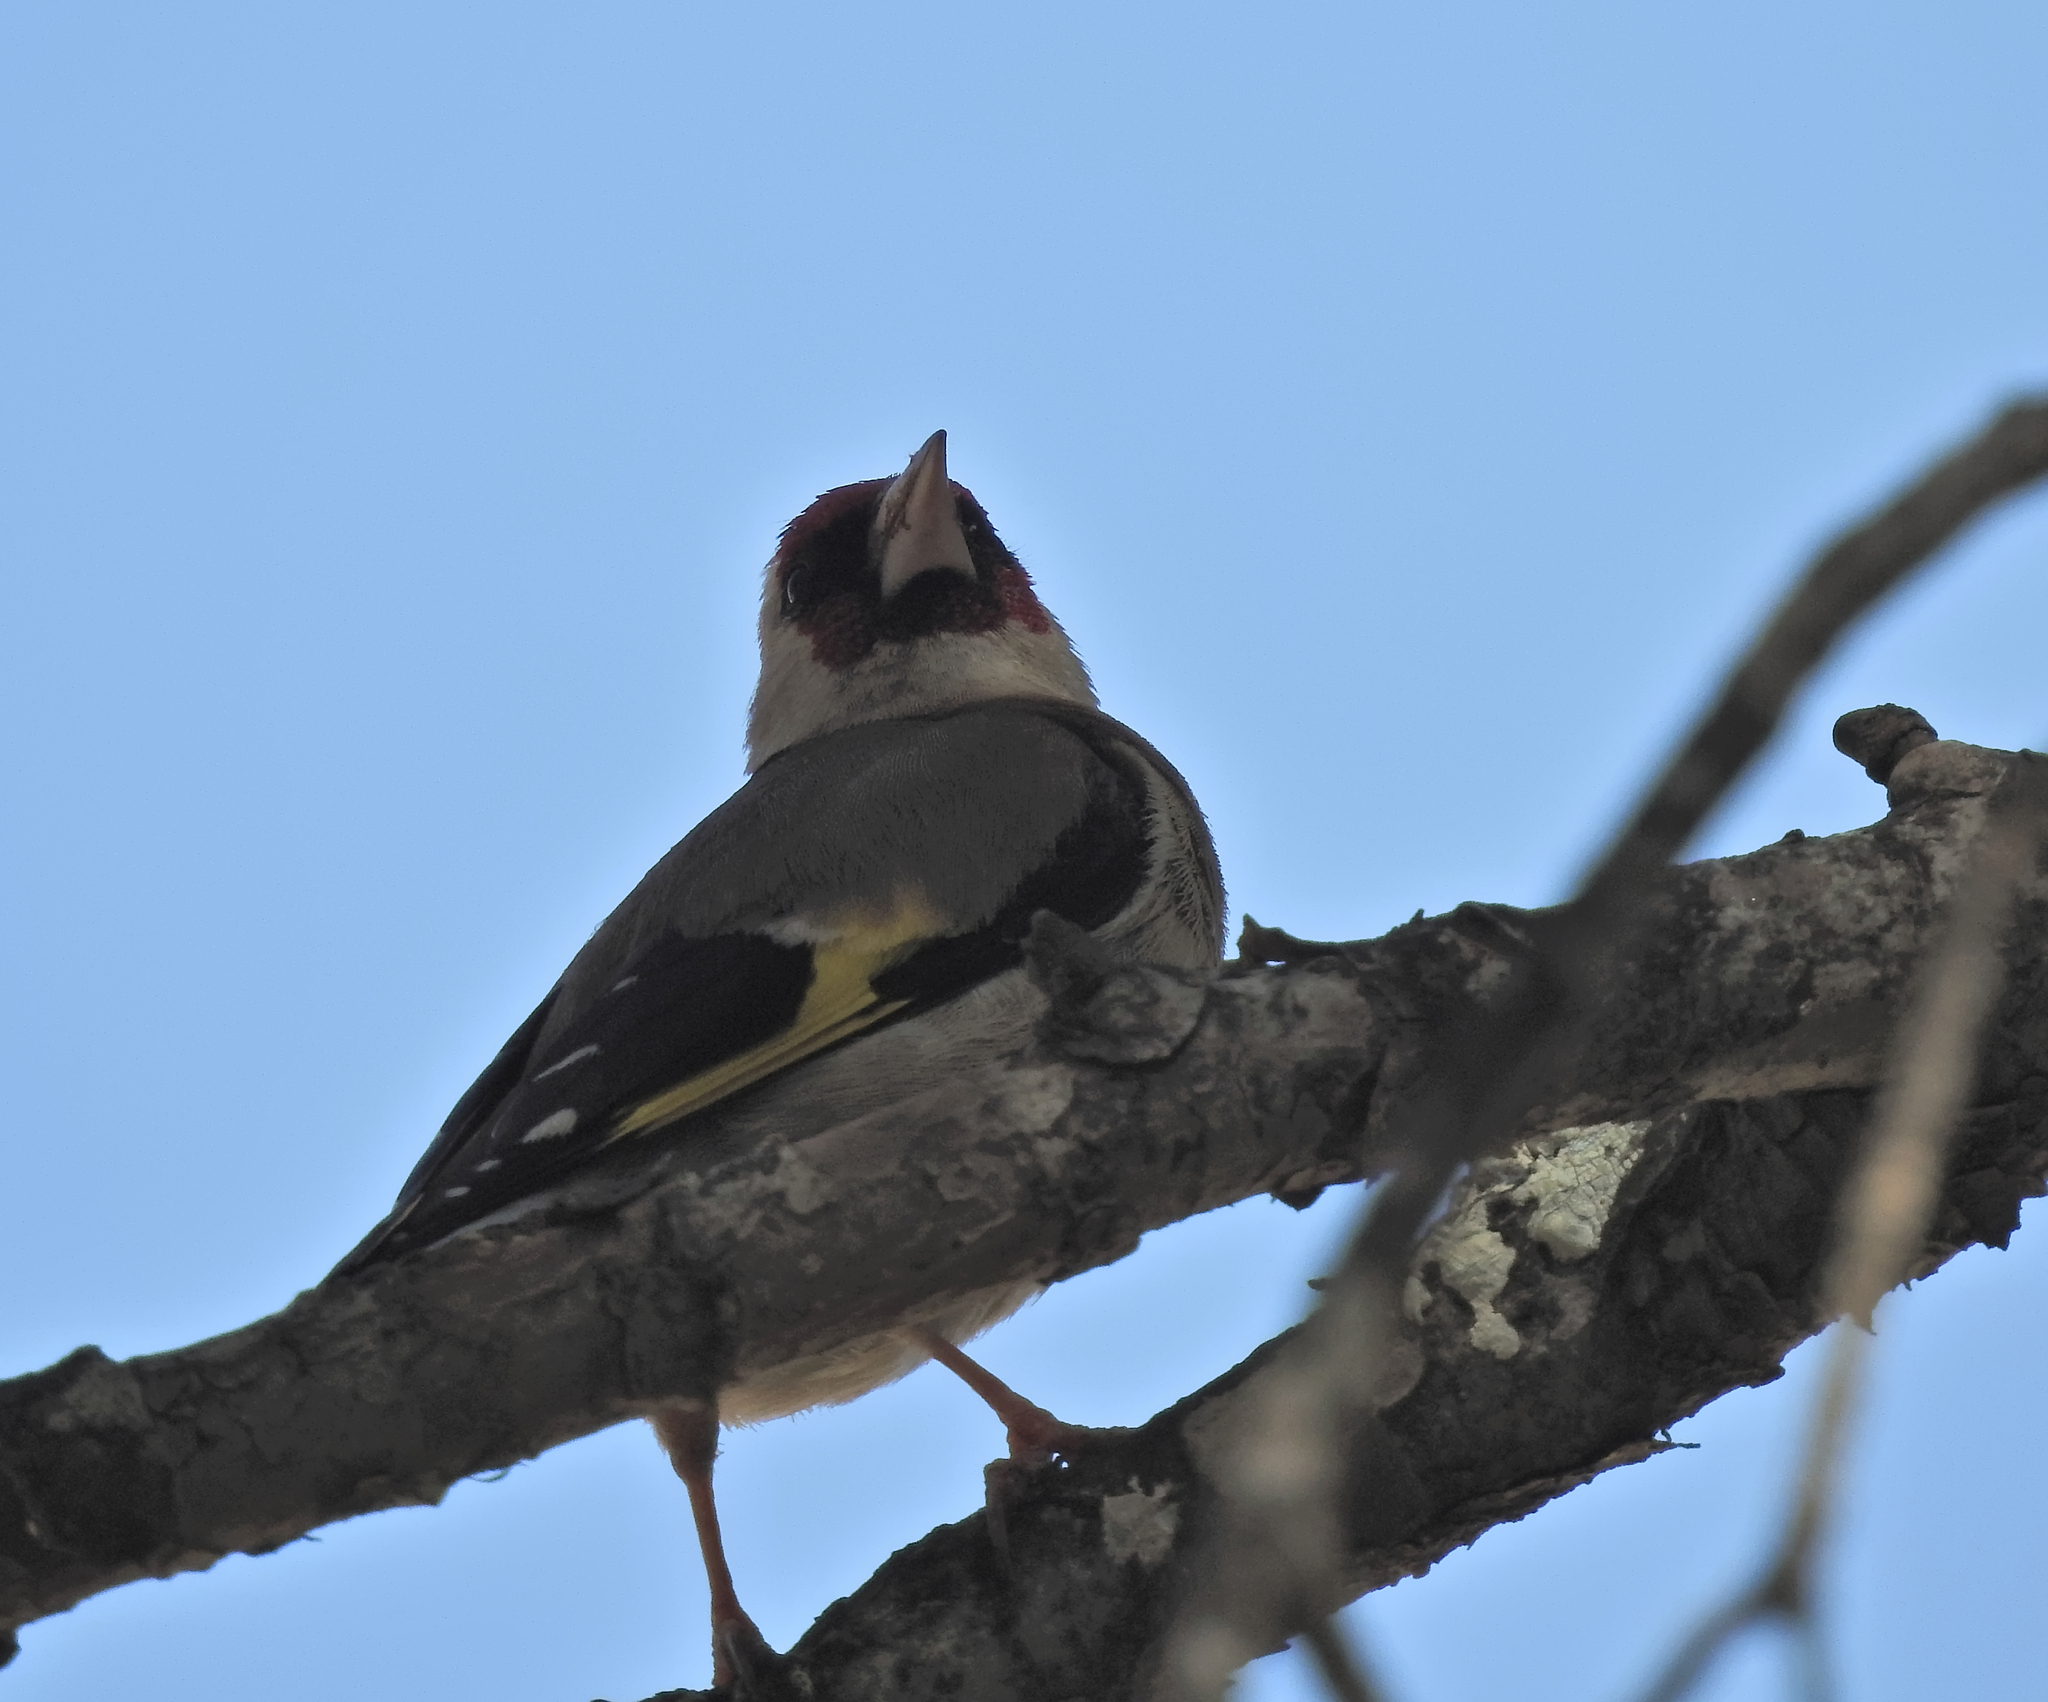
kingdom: Animalia
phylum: Chordata
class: Aves
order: Passeriformes
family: Fringillidae
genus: Carduelis
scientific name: Carduelis carduelis
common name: European goldfinch
